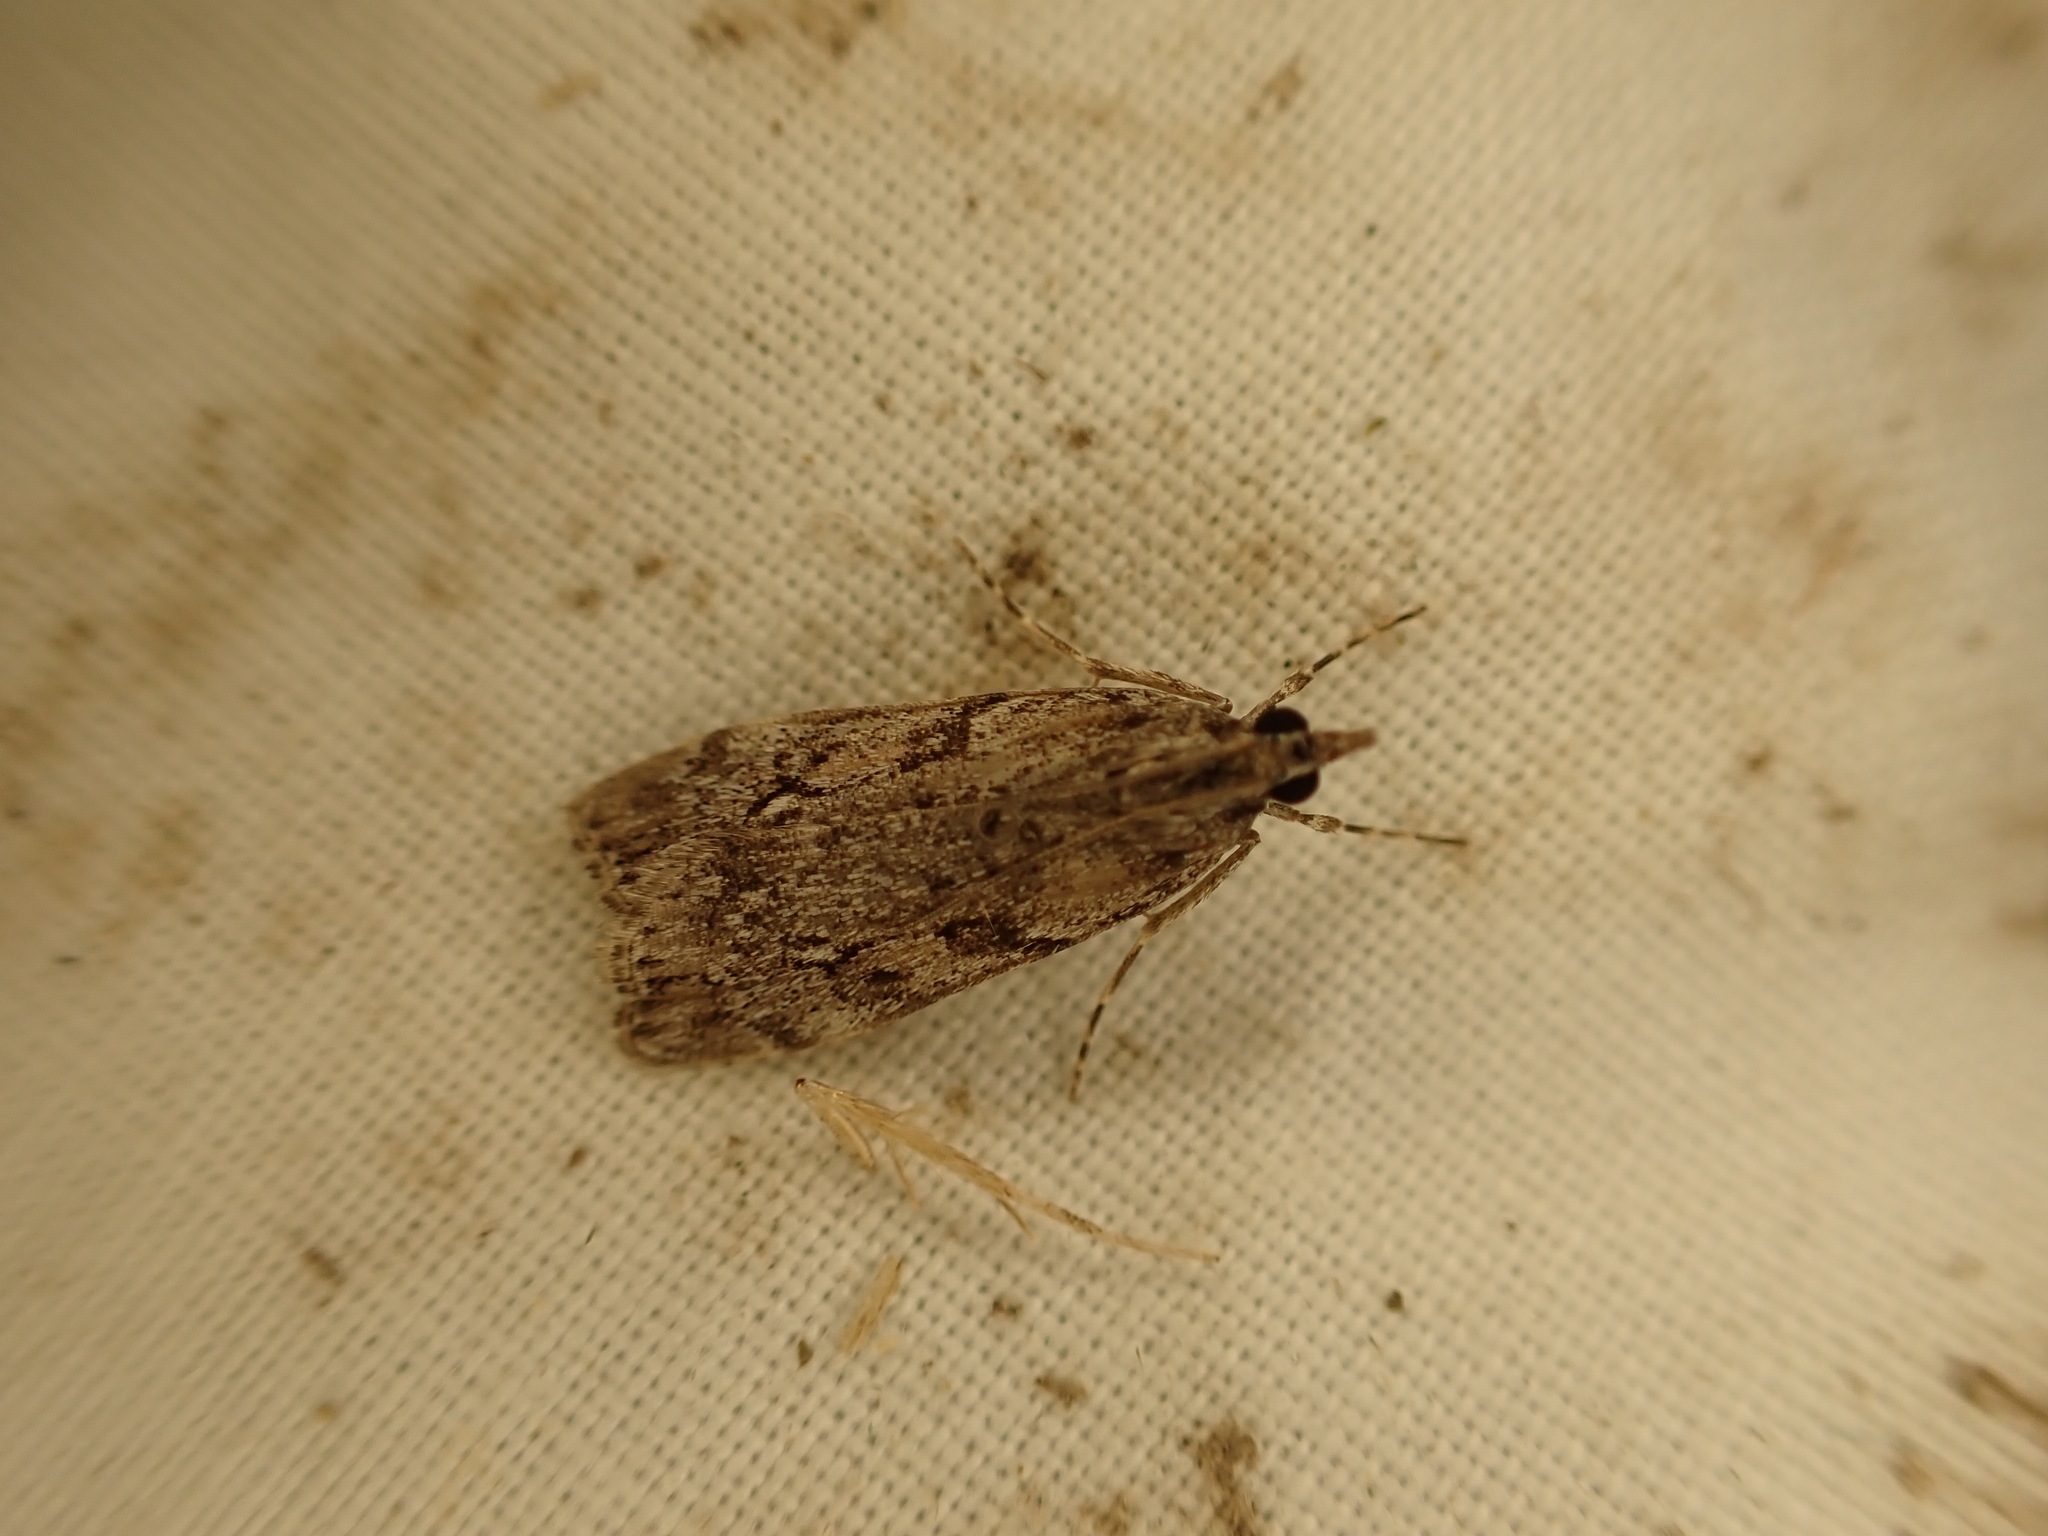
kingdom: Animalia
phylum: Arthropoda
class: Insecta
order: Lepidoptera
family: Crambidae
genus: Eudonia
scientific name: Eudonia submarginalis
